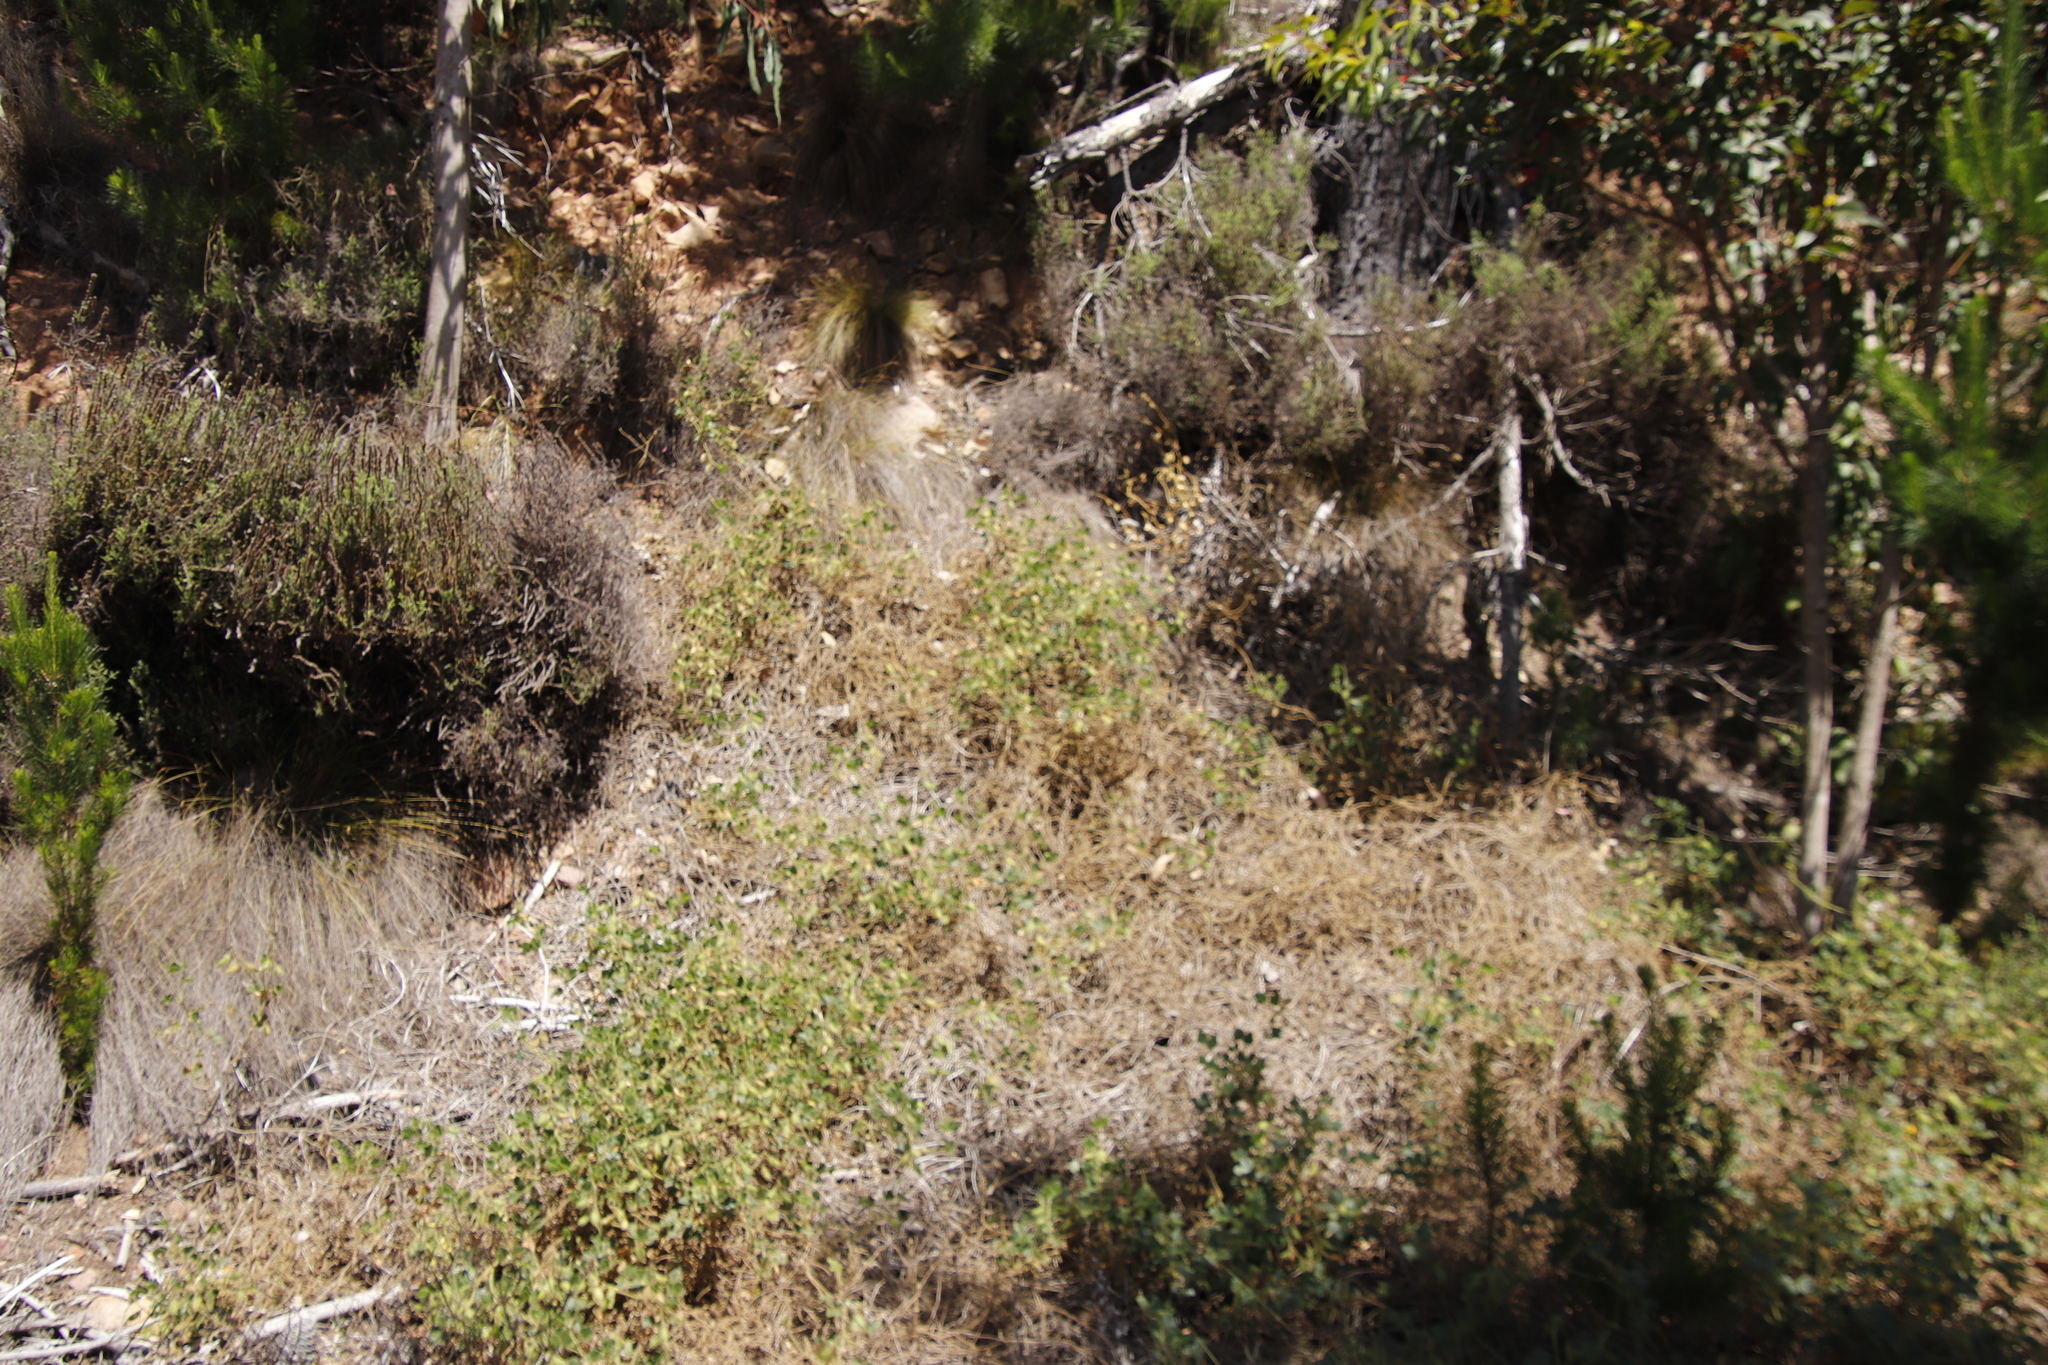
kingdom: Plantae
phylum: Tracheophyta
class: Magnoliopsida
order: Fabales
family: Fabaceae
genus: Bolusafra
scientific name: Bolusafra bituminosa
